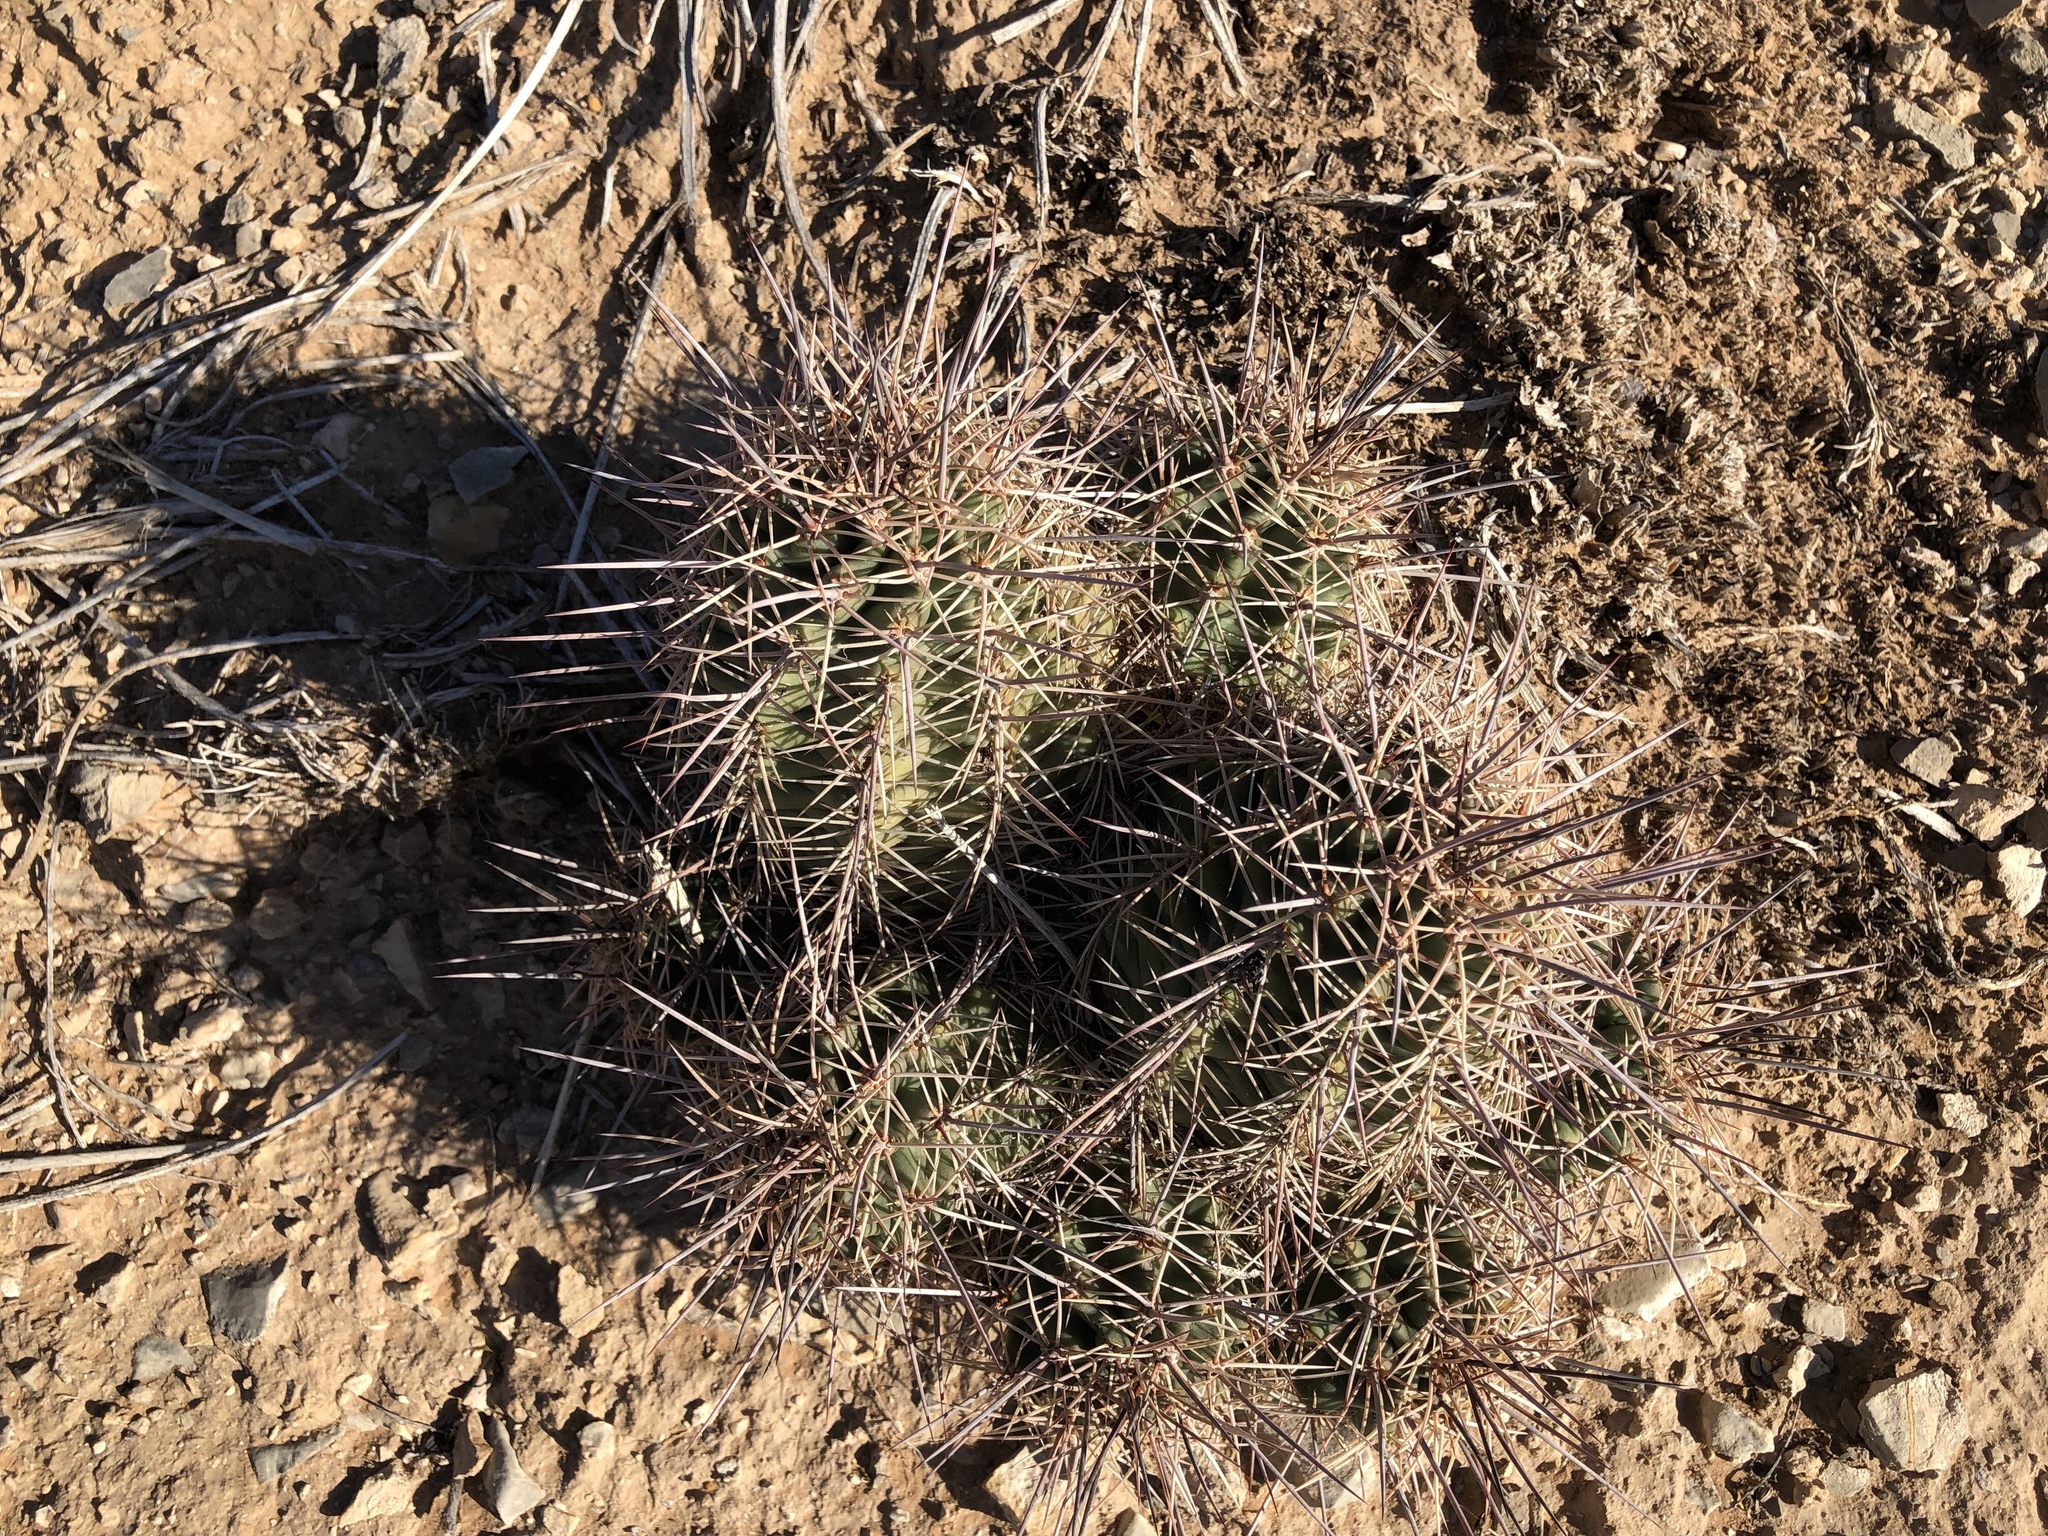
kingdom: Plantae
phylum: Tracheophyta
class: Magnoliopsida
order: Caryophyllales
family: Cactaceae
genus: Echinocereus
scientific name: Echinocereus coccineus
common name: Scarlet hedgehog cactus
